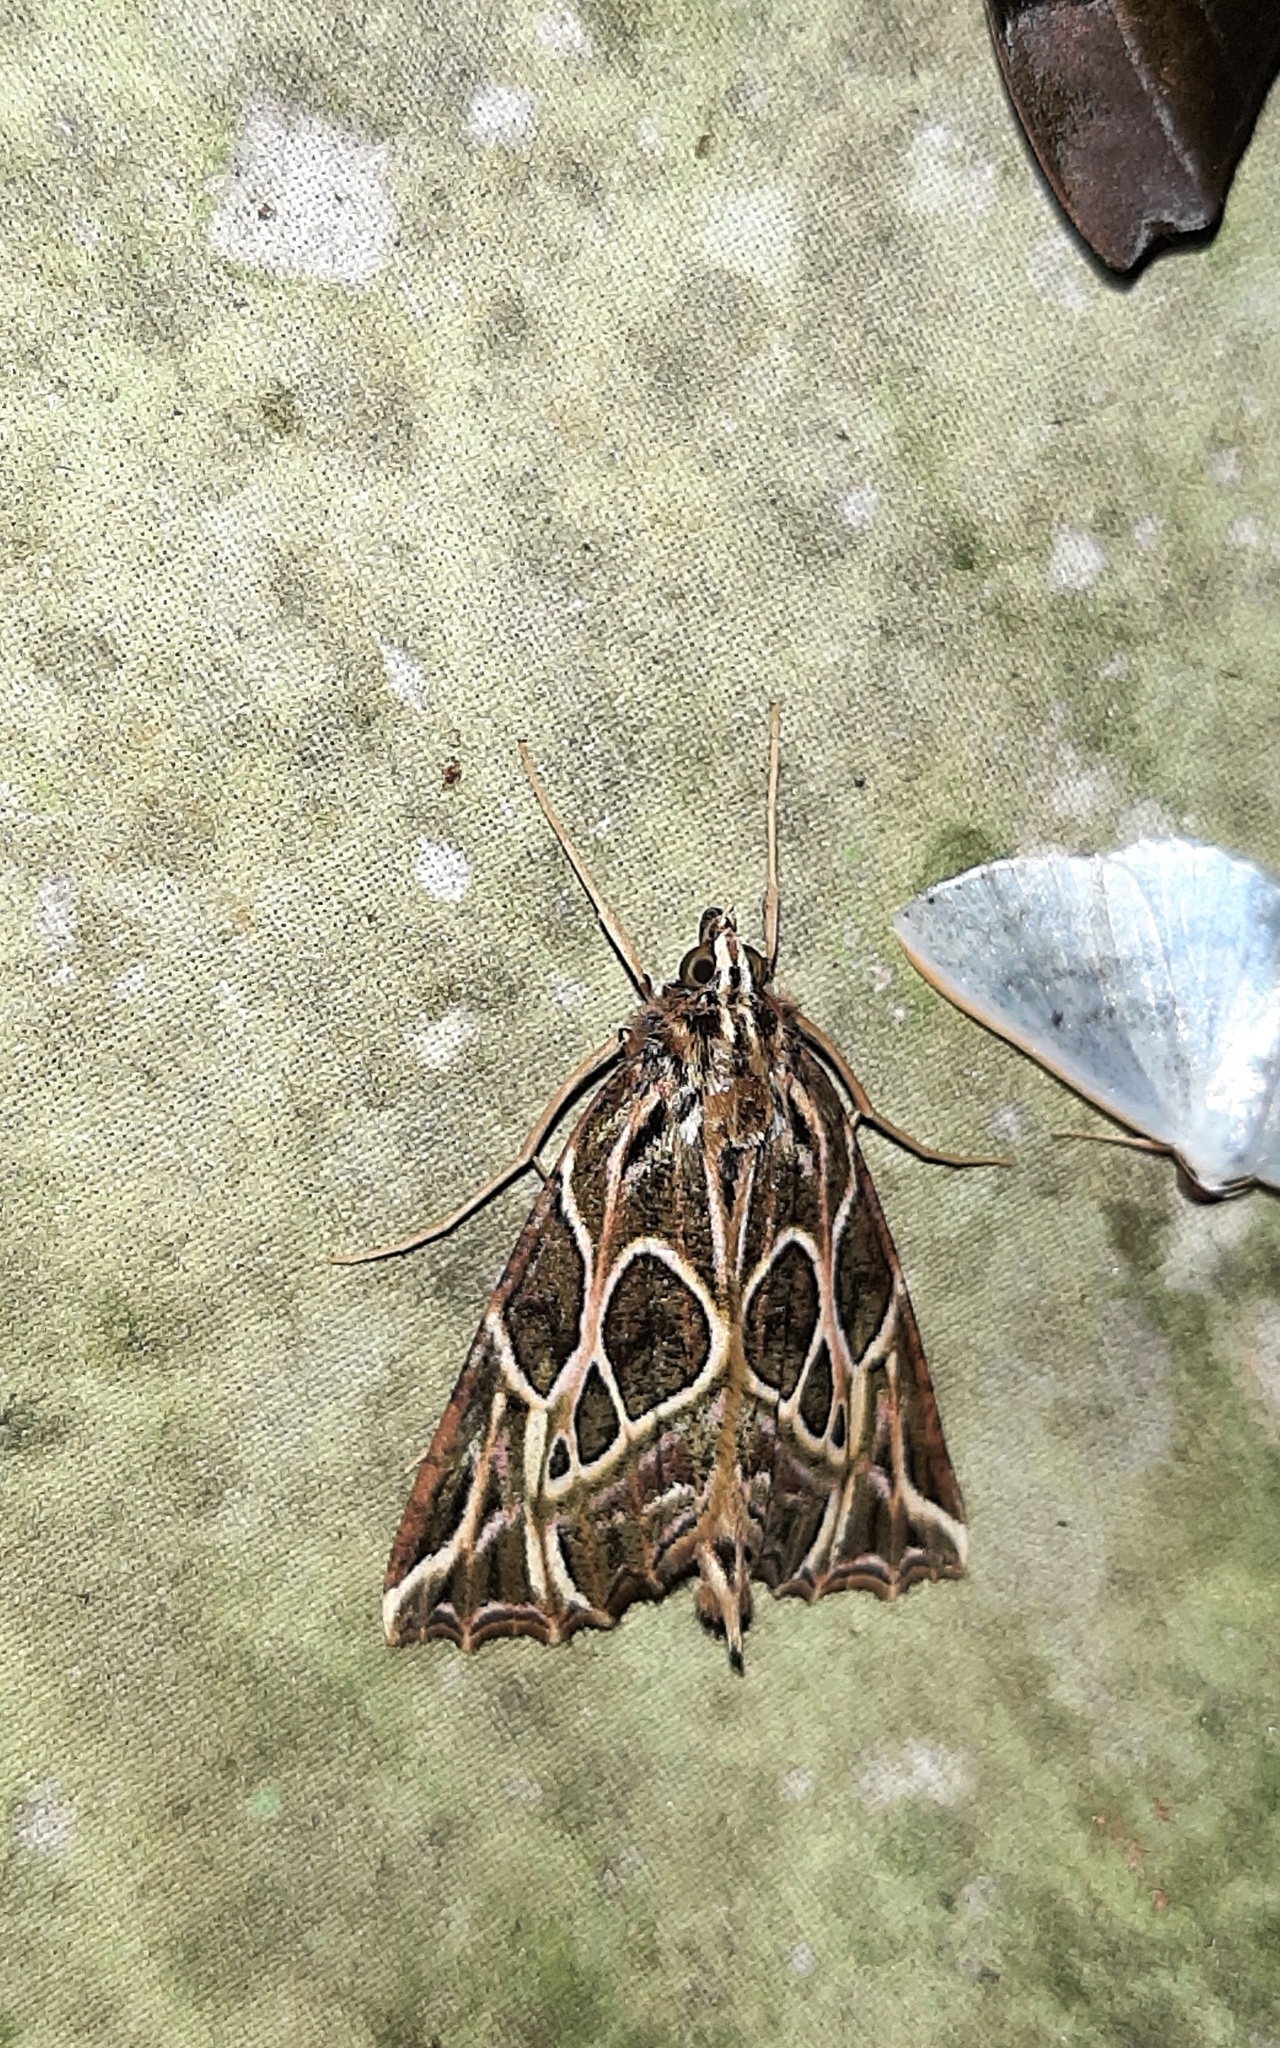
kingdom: Animalia
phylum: Arthropoda
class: Insecta
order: Lepidoptera
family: Geometridae
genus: Charca
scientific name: Charca
